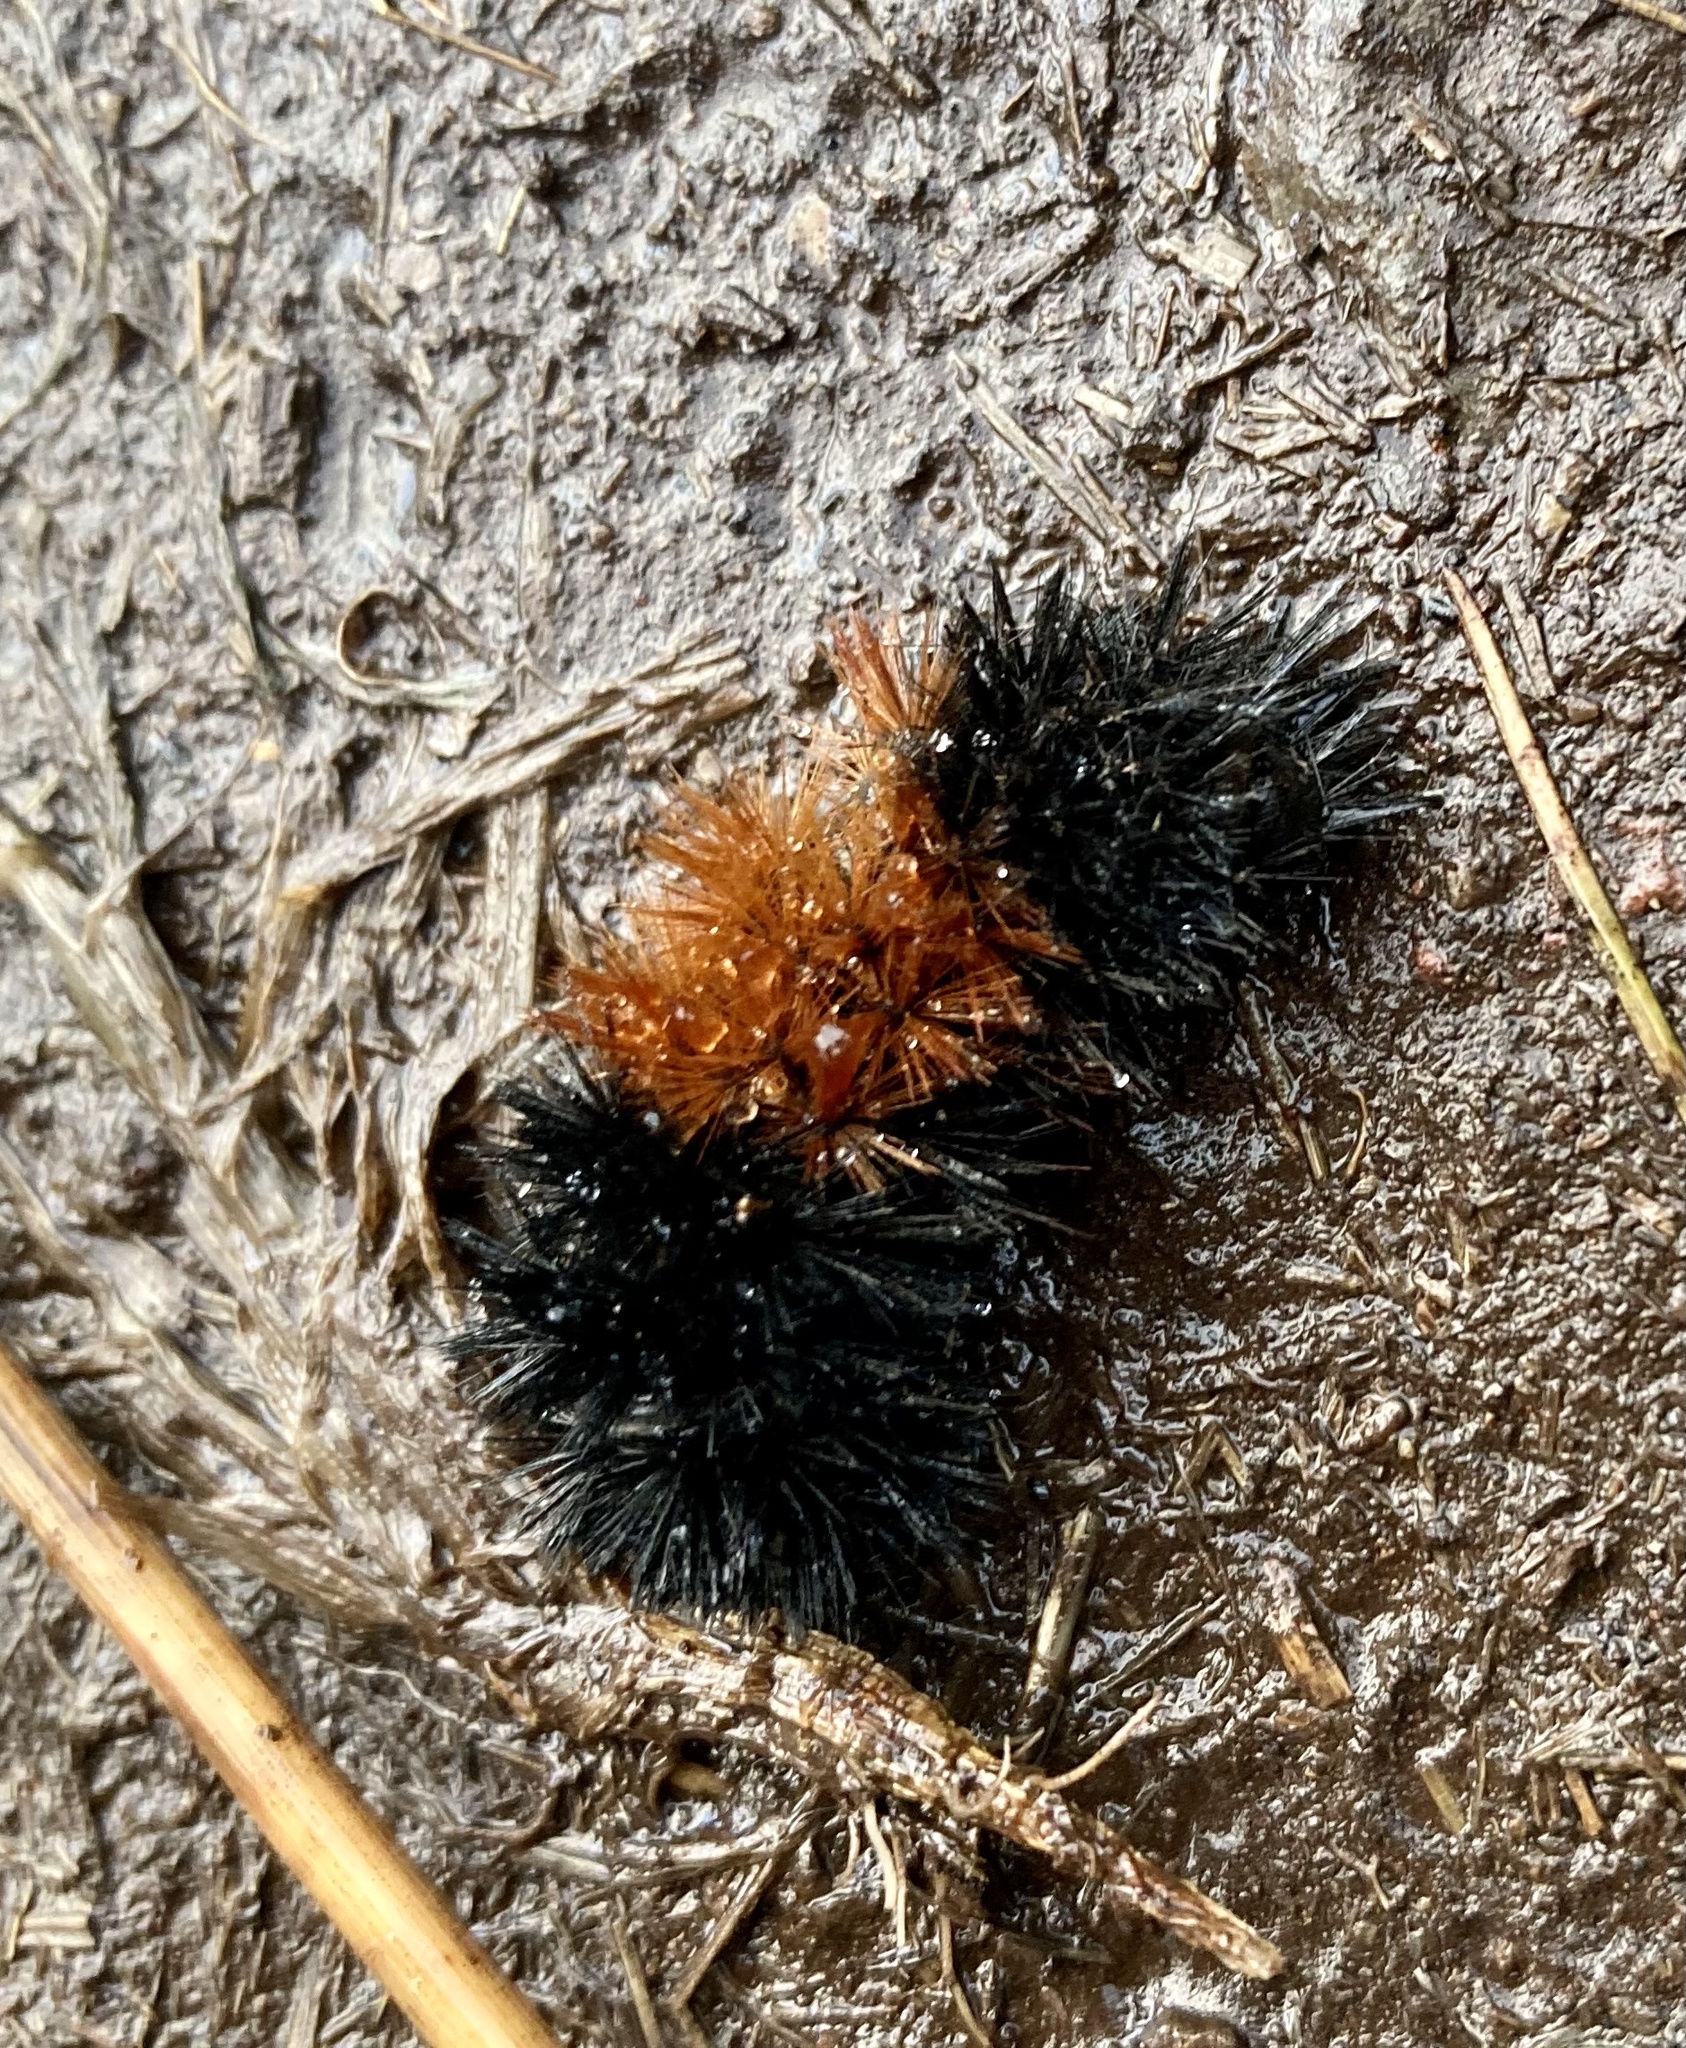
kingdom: Animalia
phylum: Arthropoda
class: Insecta
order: Lepidoptera
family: Erebidae
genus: Pyrrharctia
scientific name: Pyrrharctia isabella
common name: Isabella tiger moth
